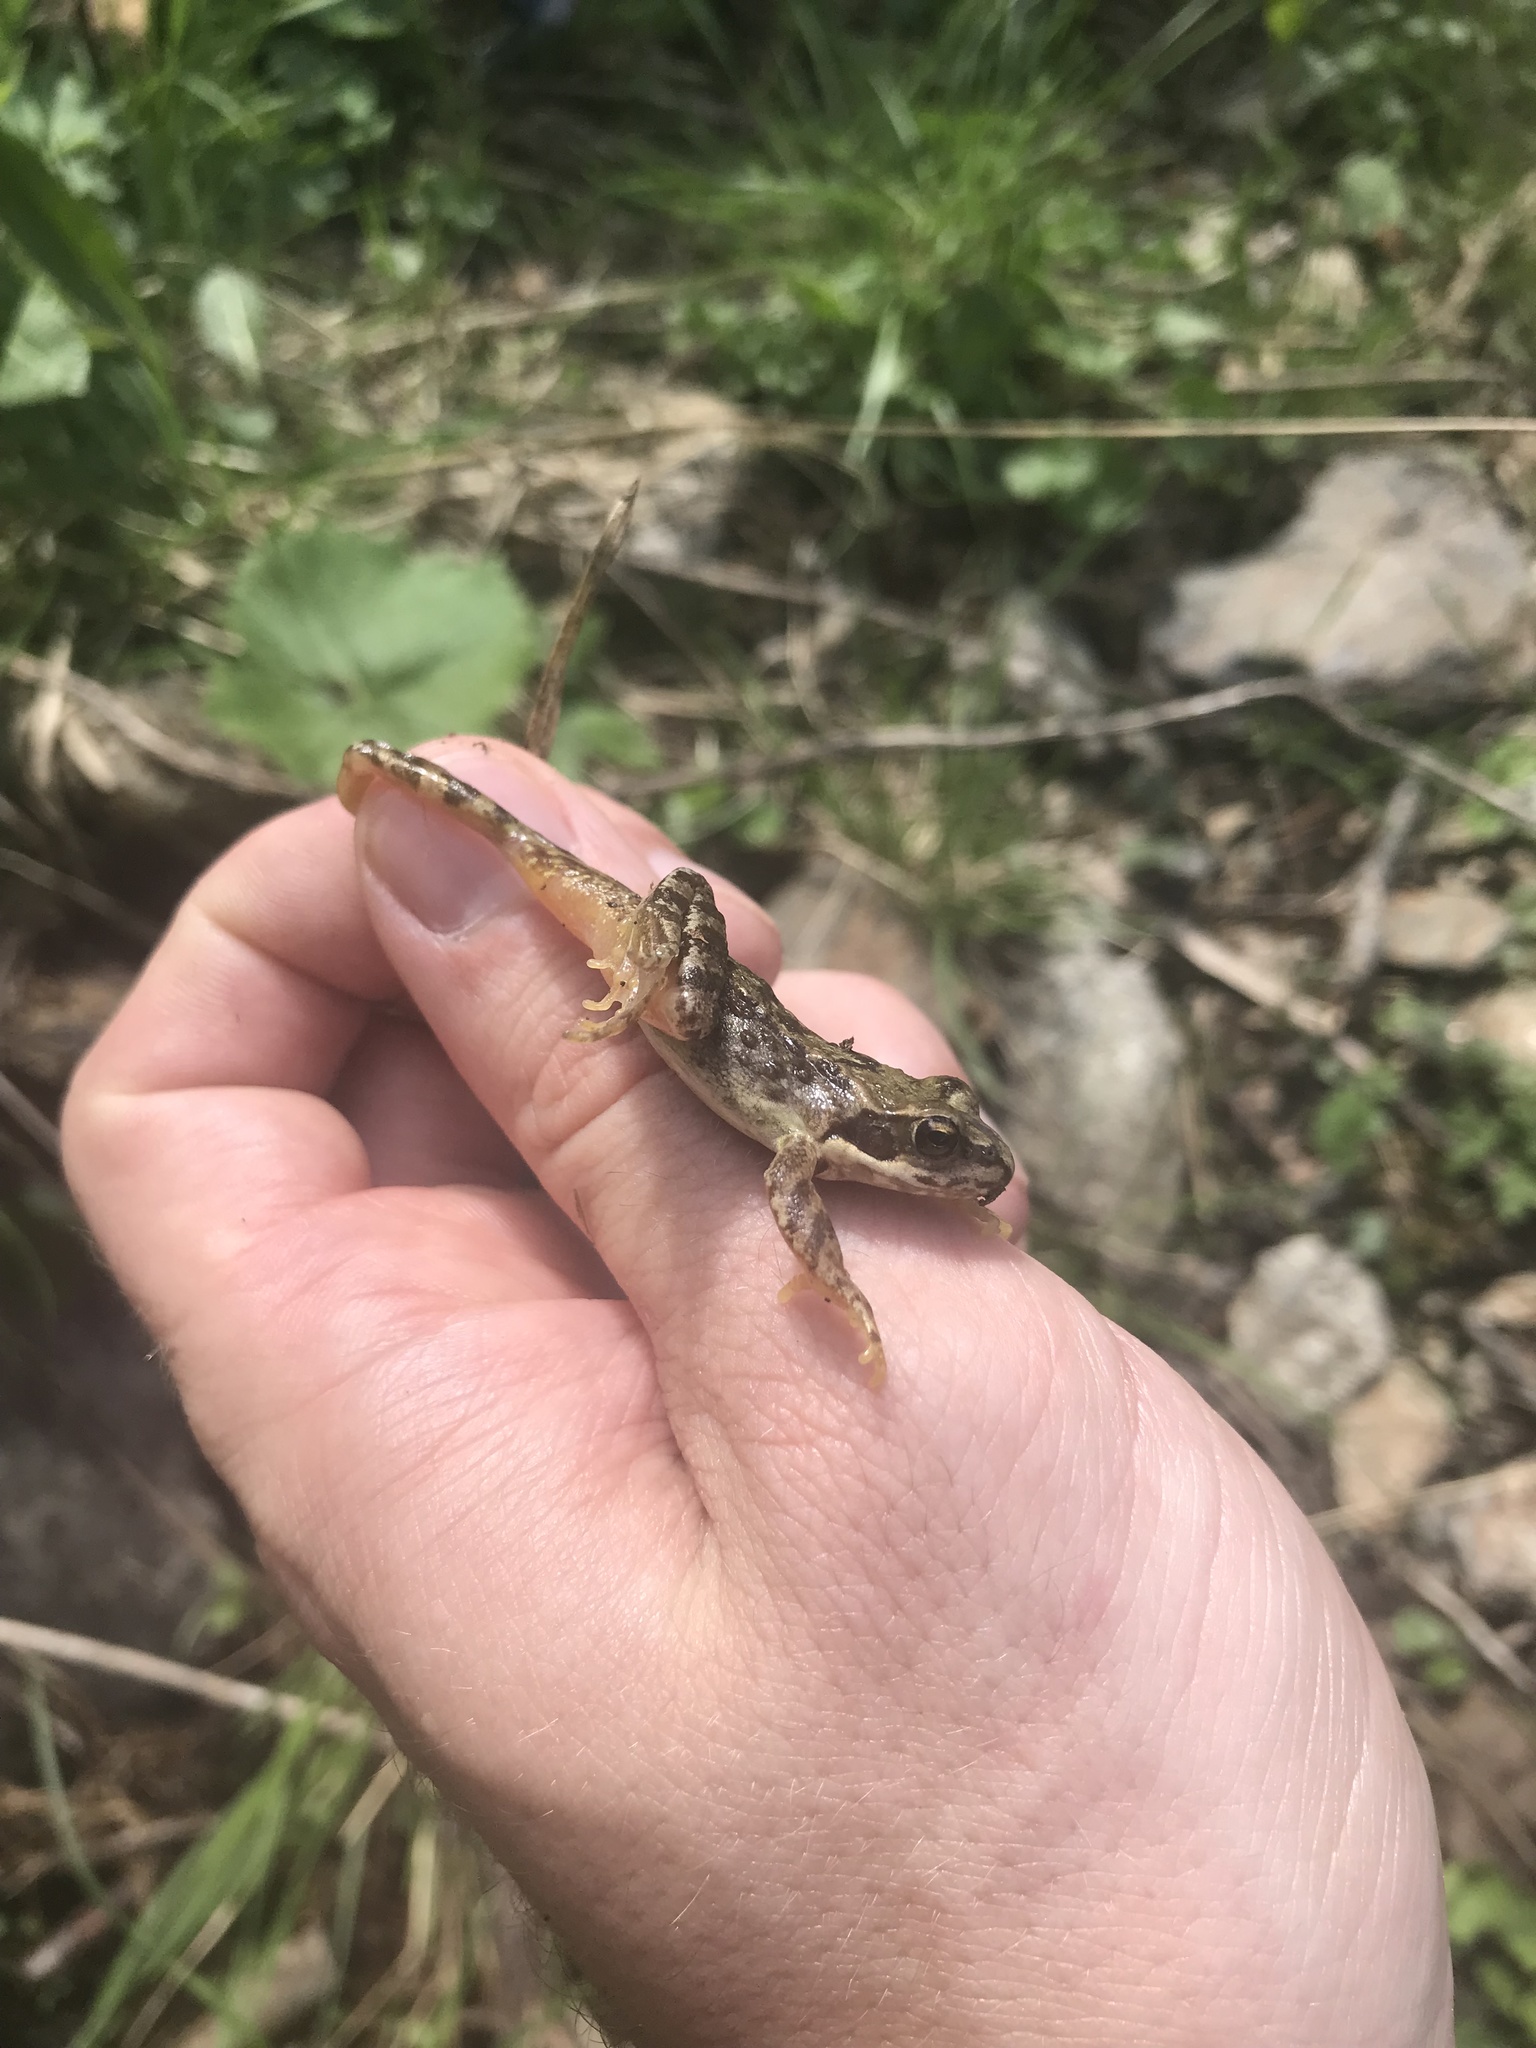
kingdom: Animalia
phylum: Chordata
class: Amphibia
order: Anura
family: Ranidae
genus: Rana
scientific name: Rana temporaria
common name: Common frog
